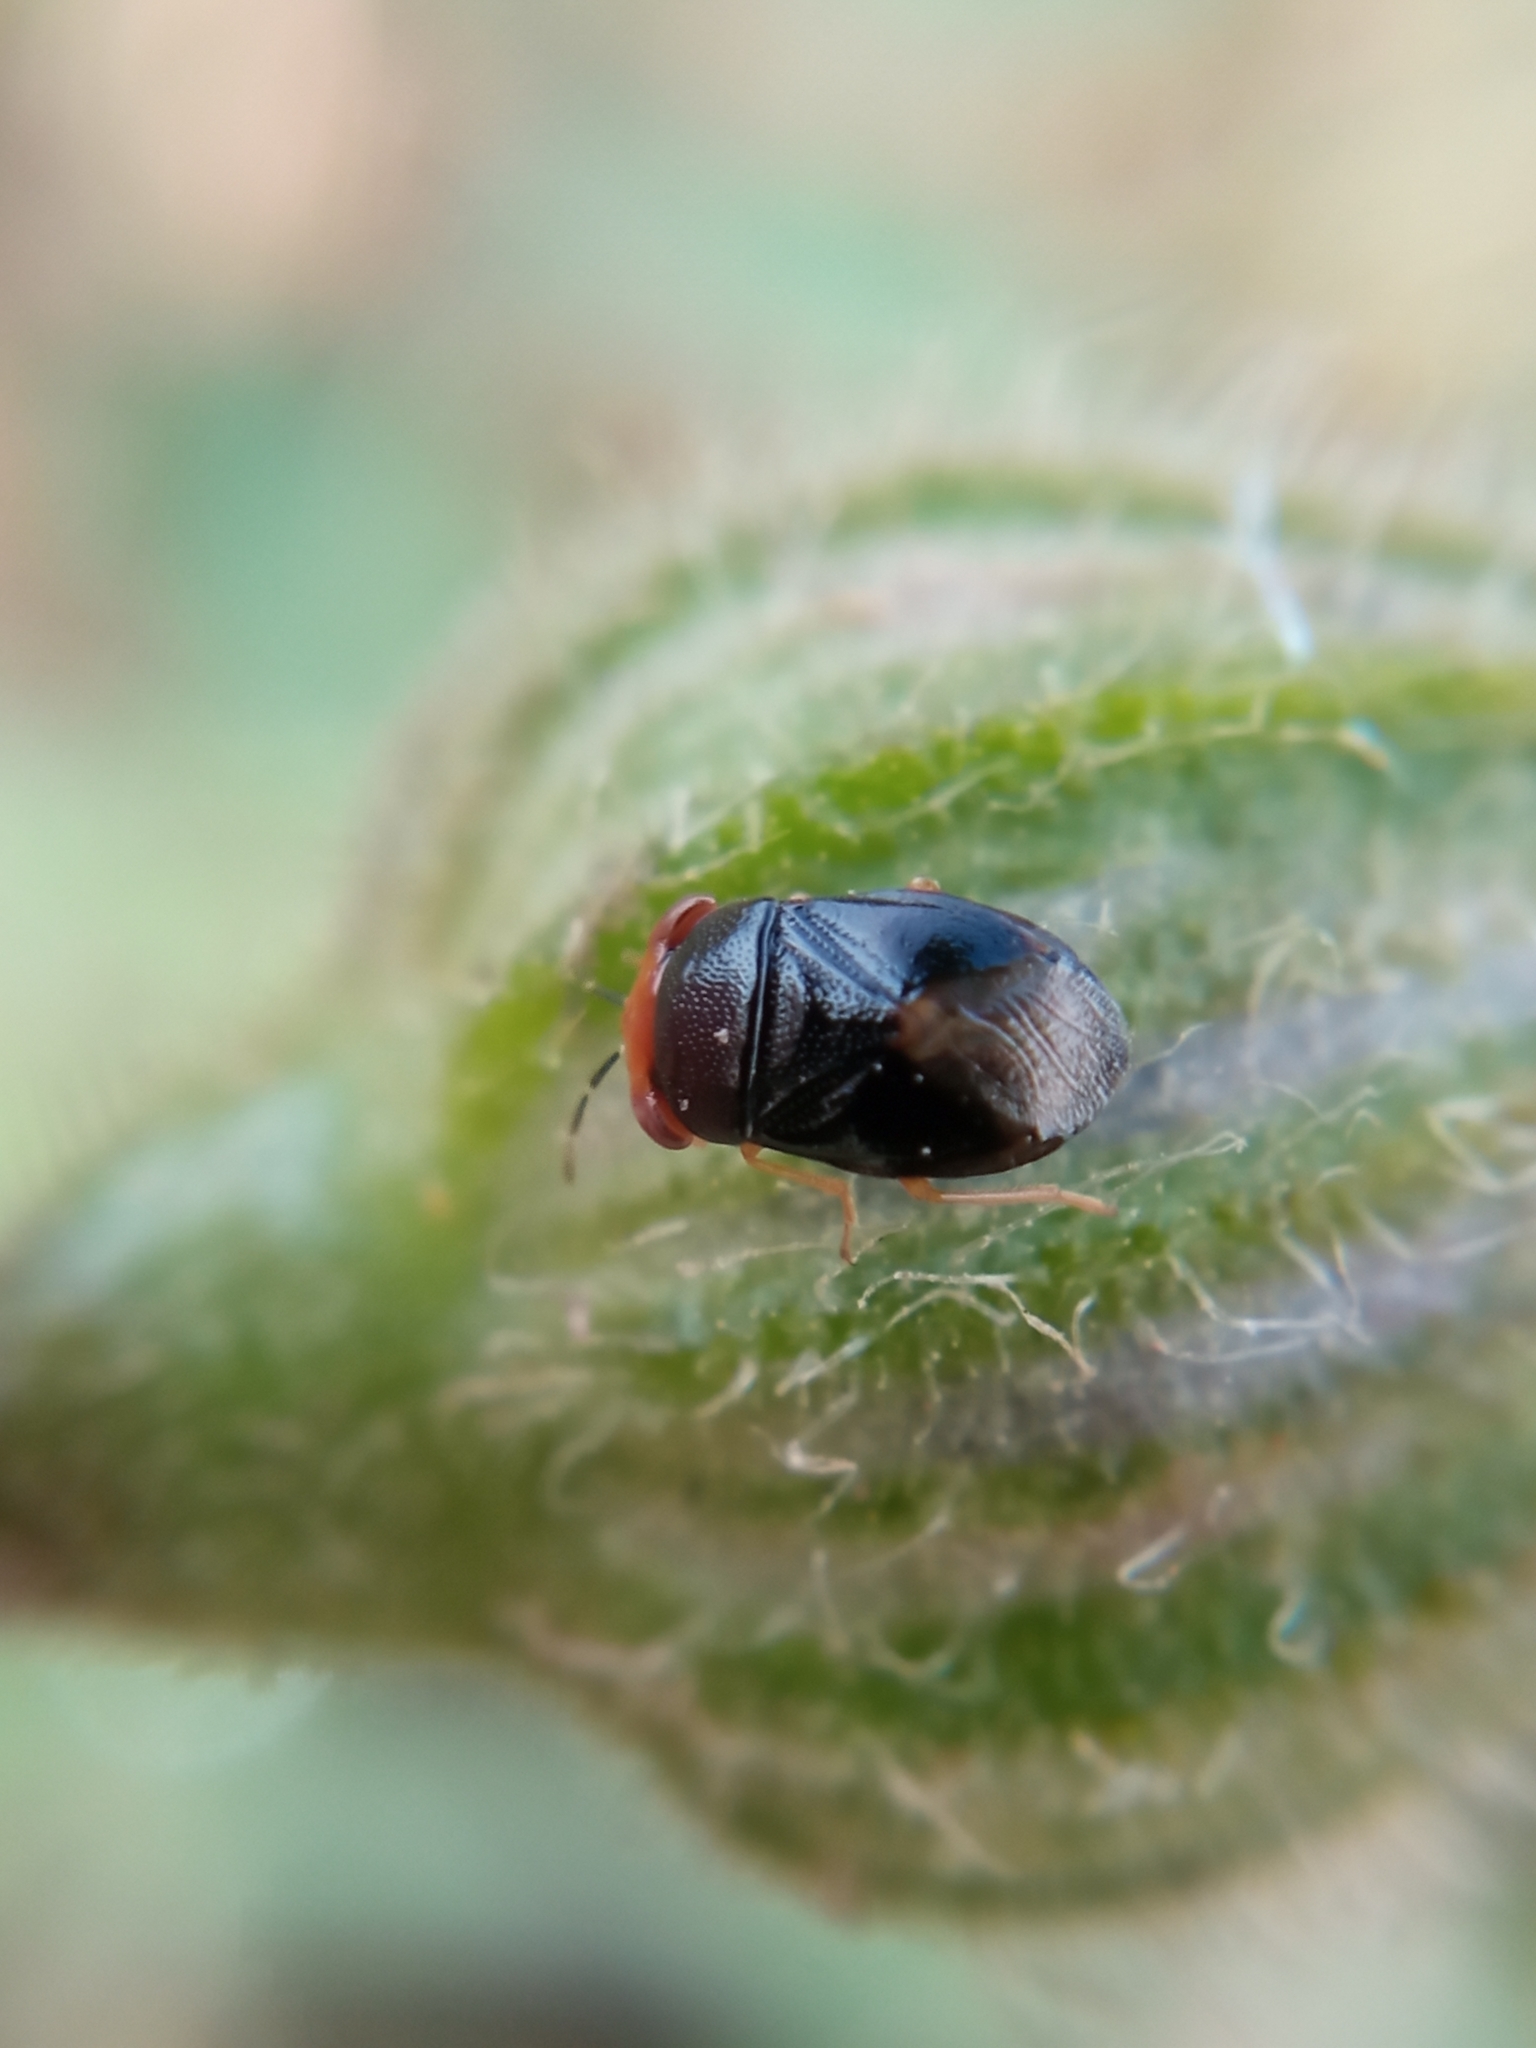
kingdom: Animalia
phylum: Arthropoda
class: Insecta
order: Hemiptera
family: Geocoridae
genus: Geocoris
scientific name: Geocoris erythrocephala
